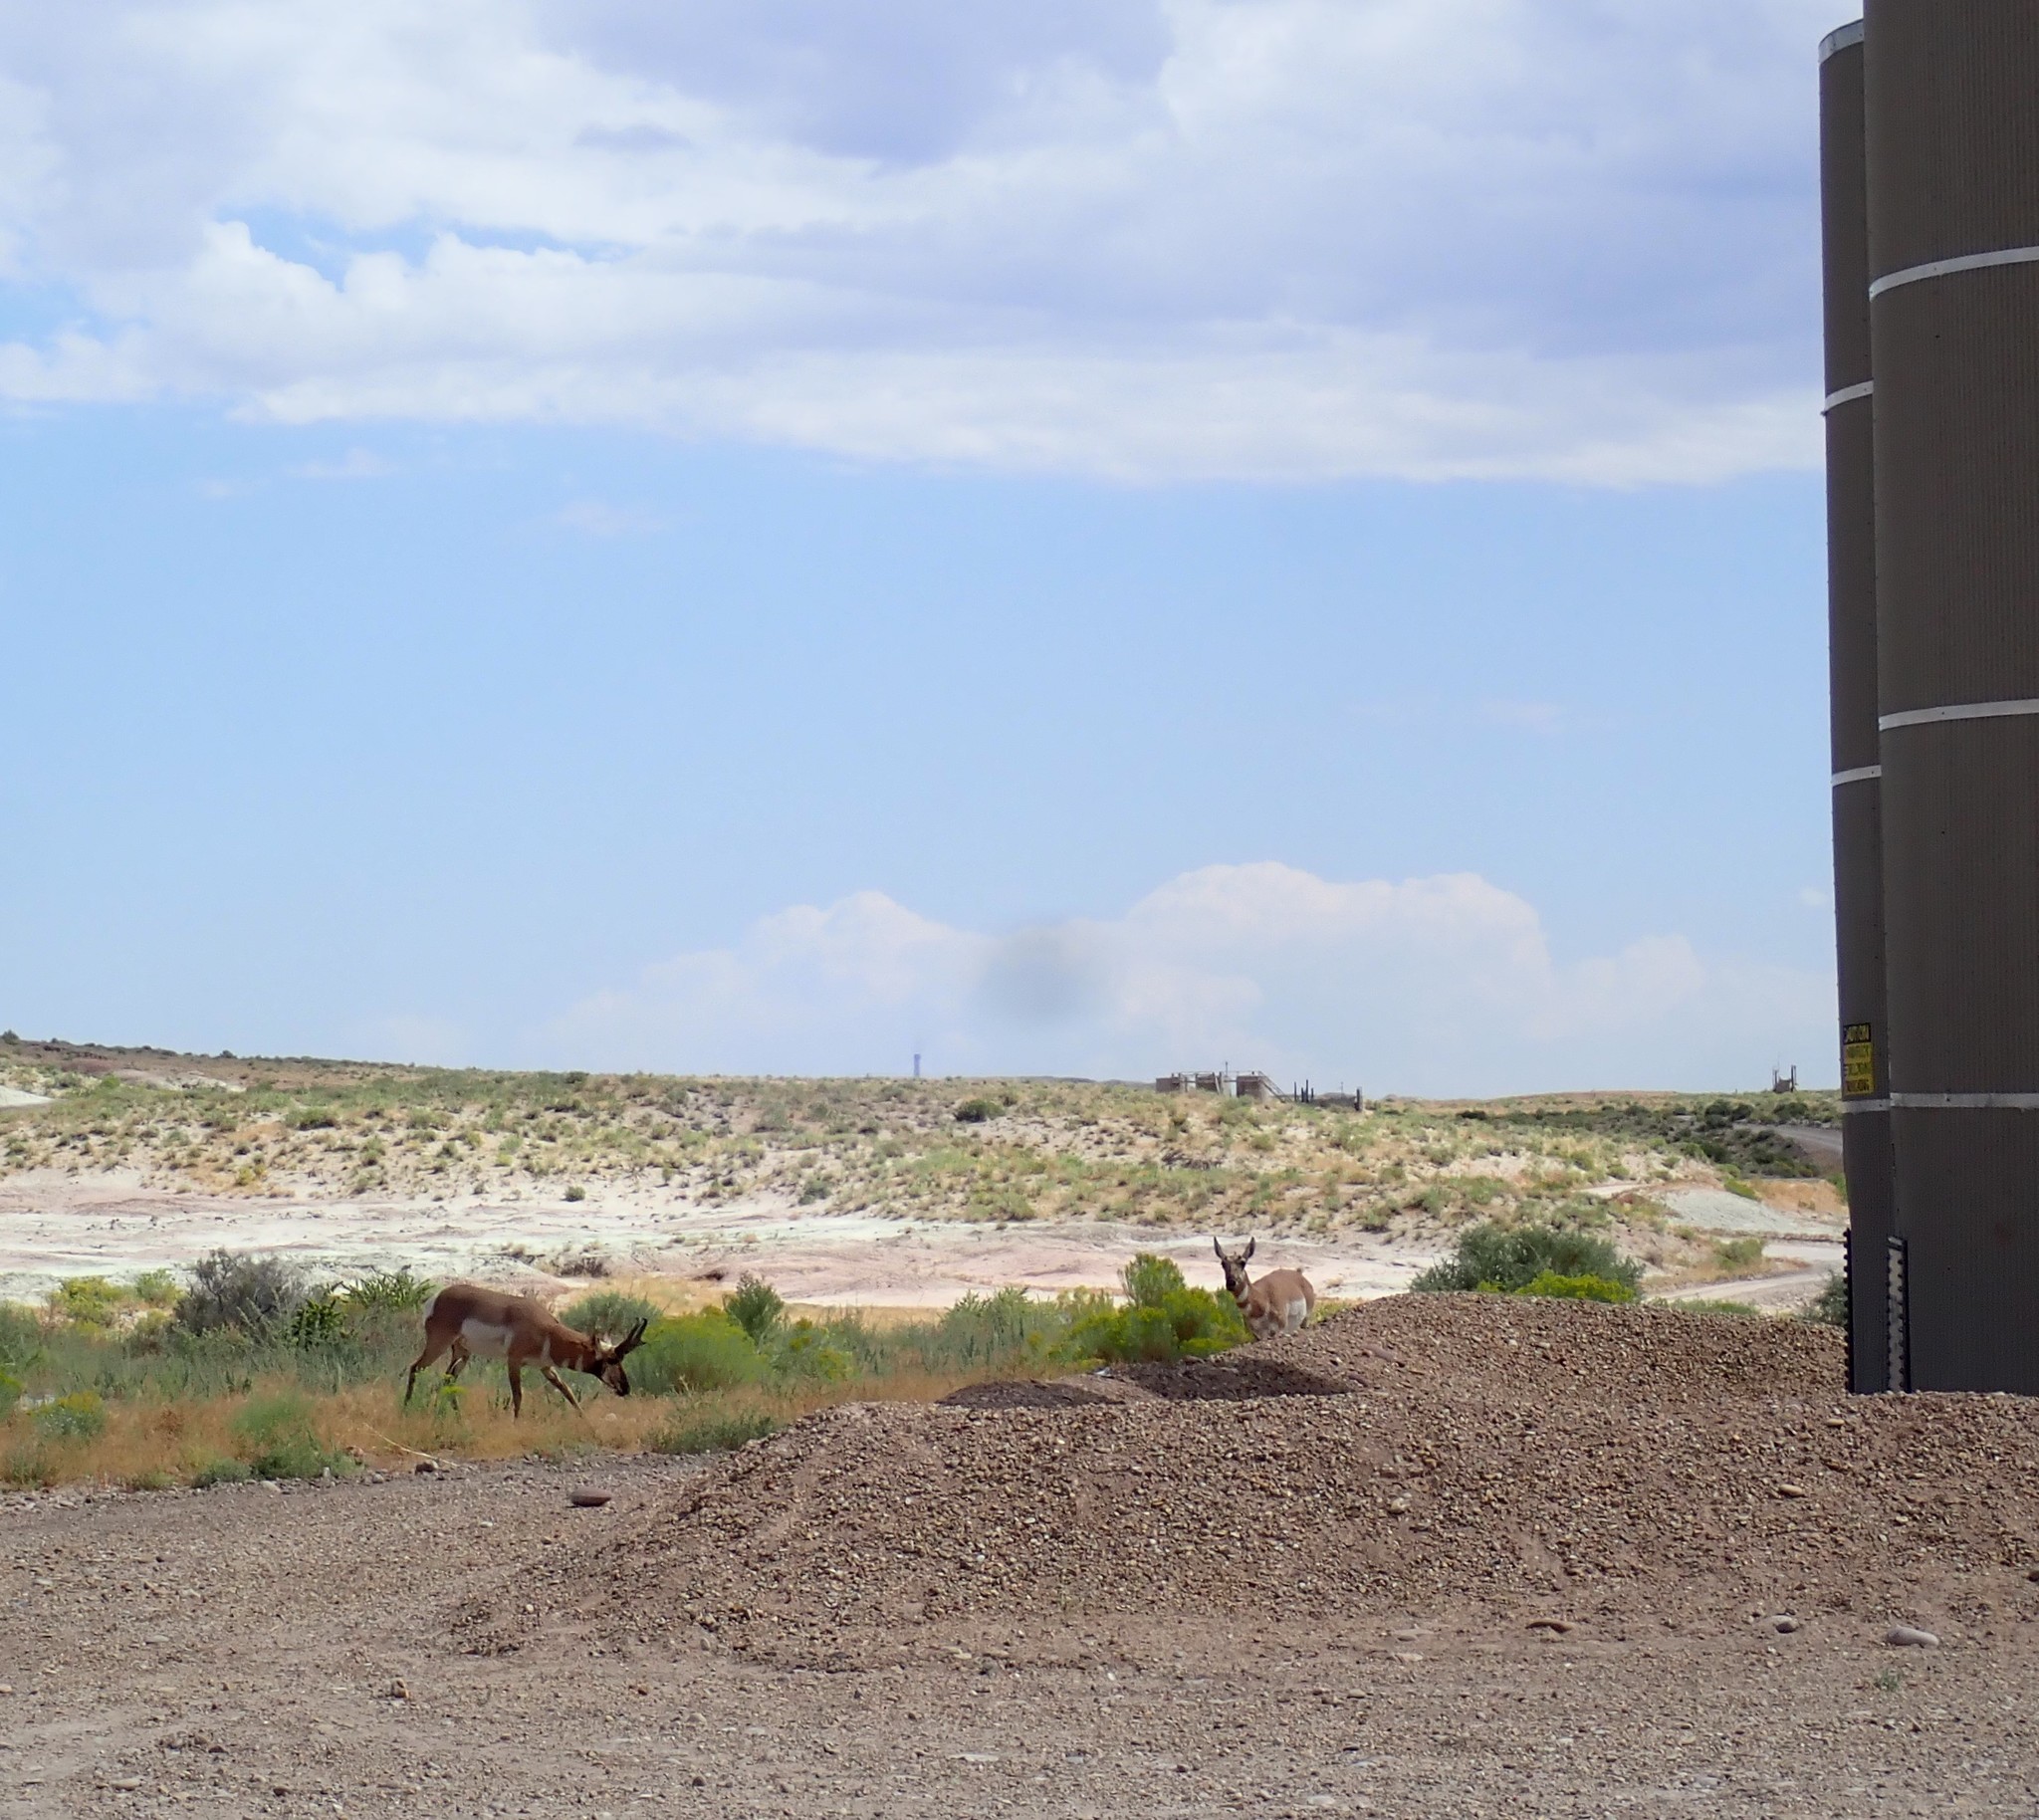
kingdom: Animalia
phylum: Chordata
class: Mammalia
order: Artiodactyla
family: Antilocapridae
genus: Antilocapra
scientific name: Antilocapra americana
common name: Pronghorn
